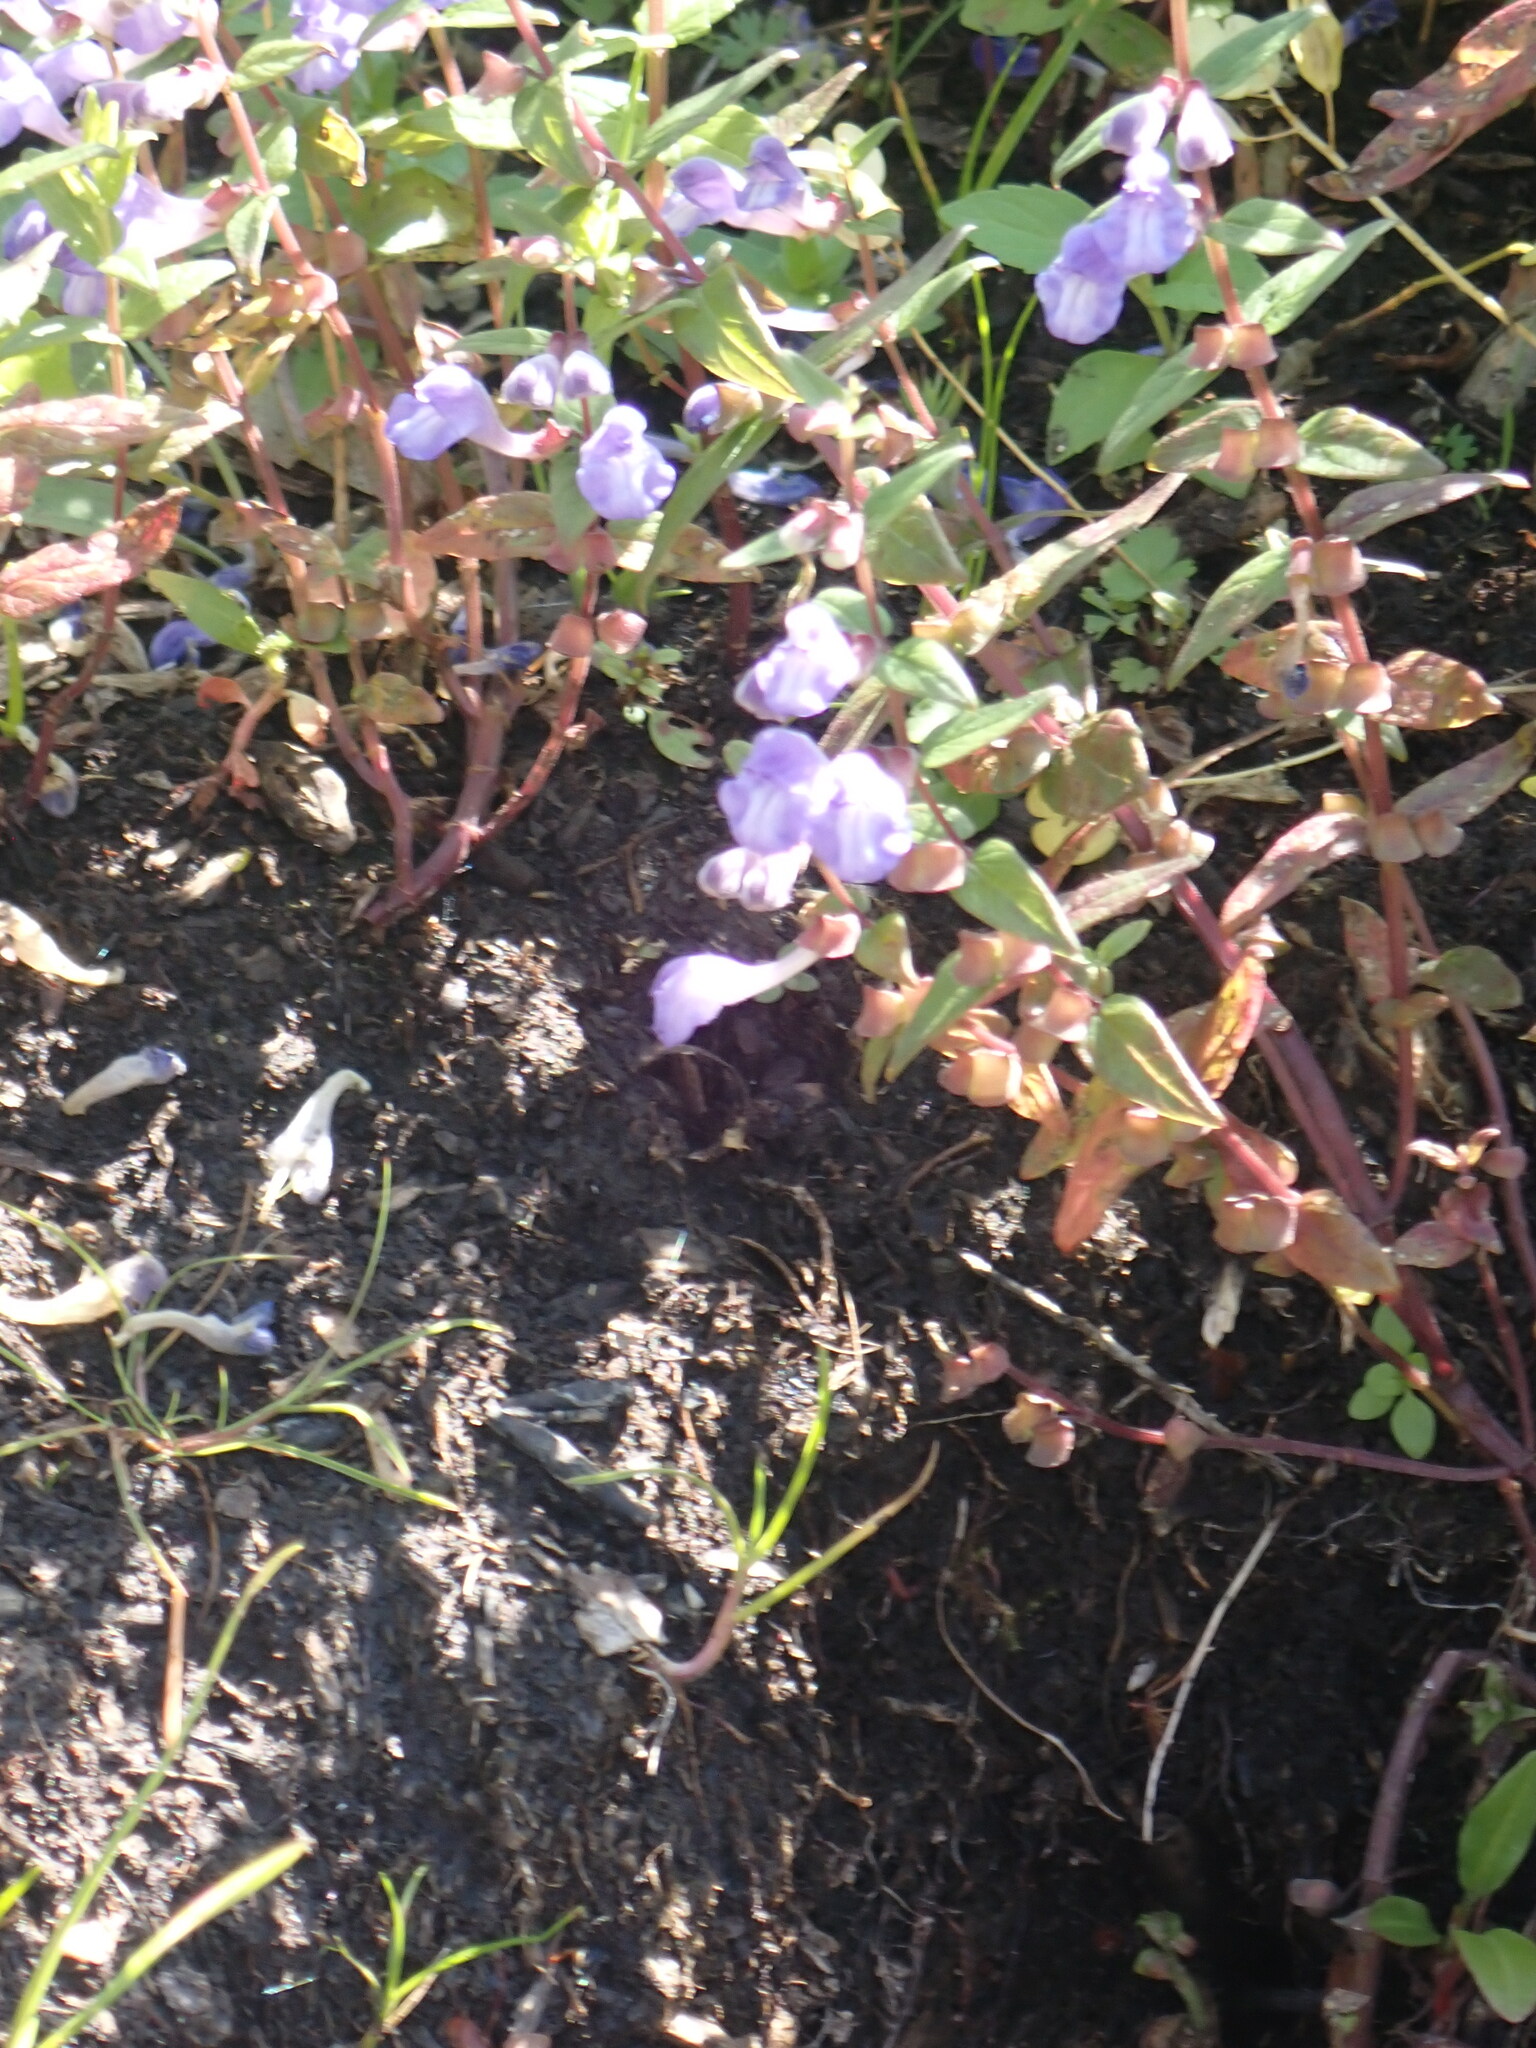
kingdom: Plantae
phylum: Tracheophyta
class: Magnoliopsida
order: Lamiales
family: Lamiaceae
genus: Scutellaria
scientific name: Scutellaria galericulata
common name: Skullcap
